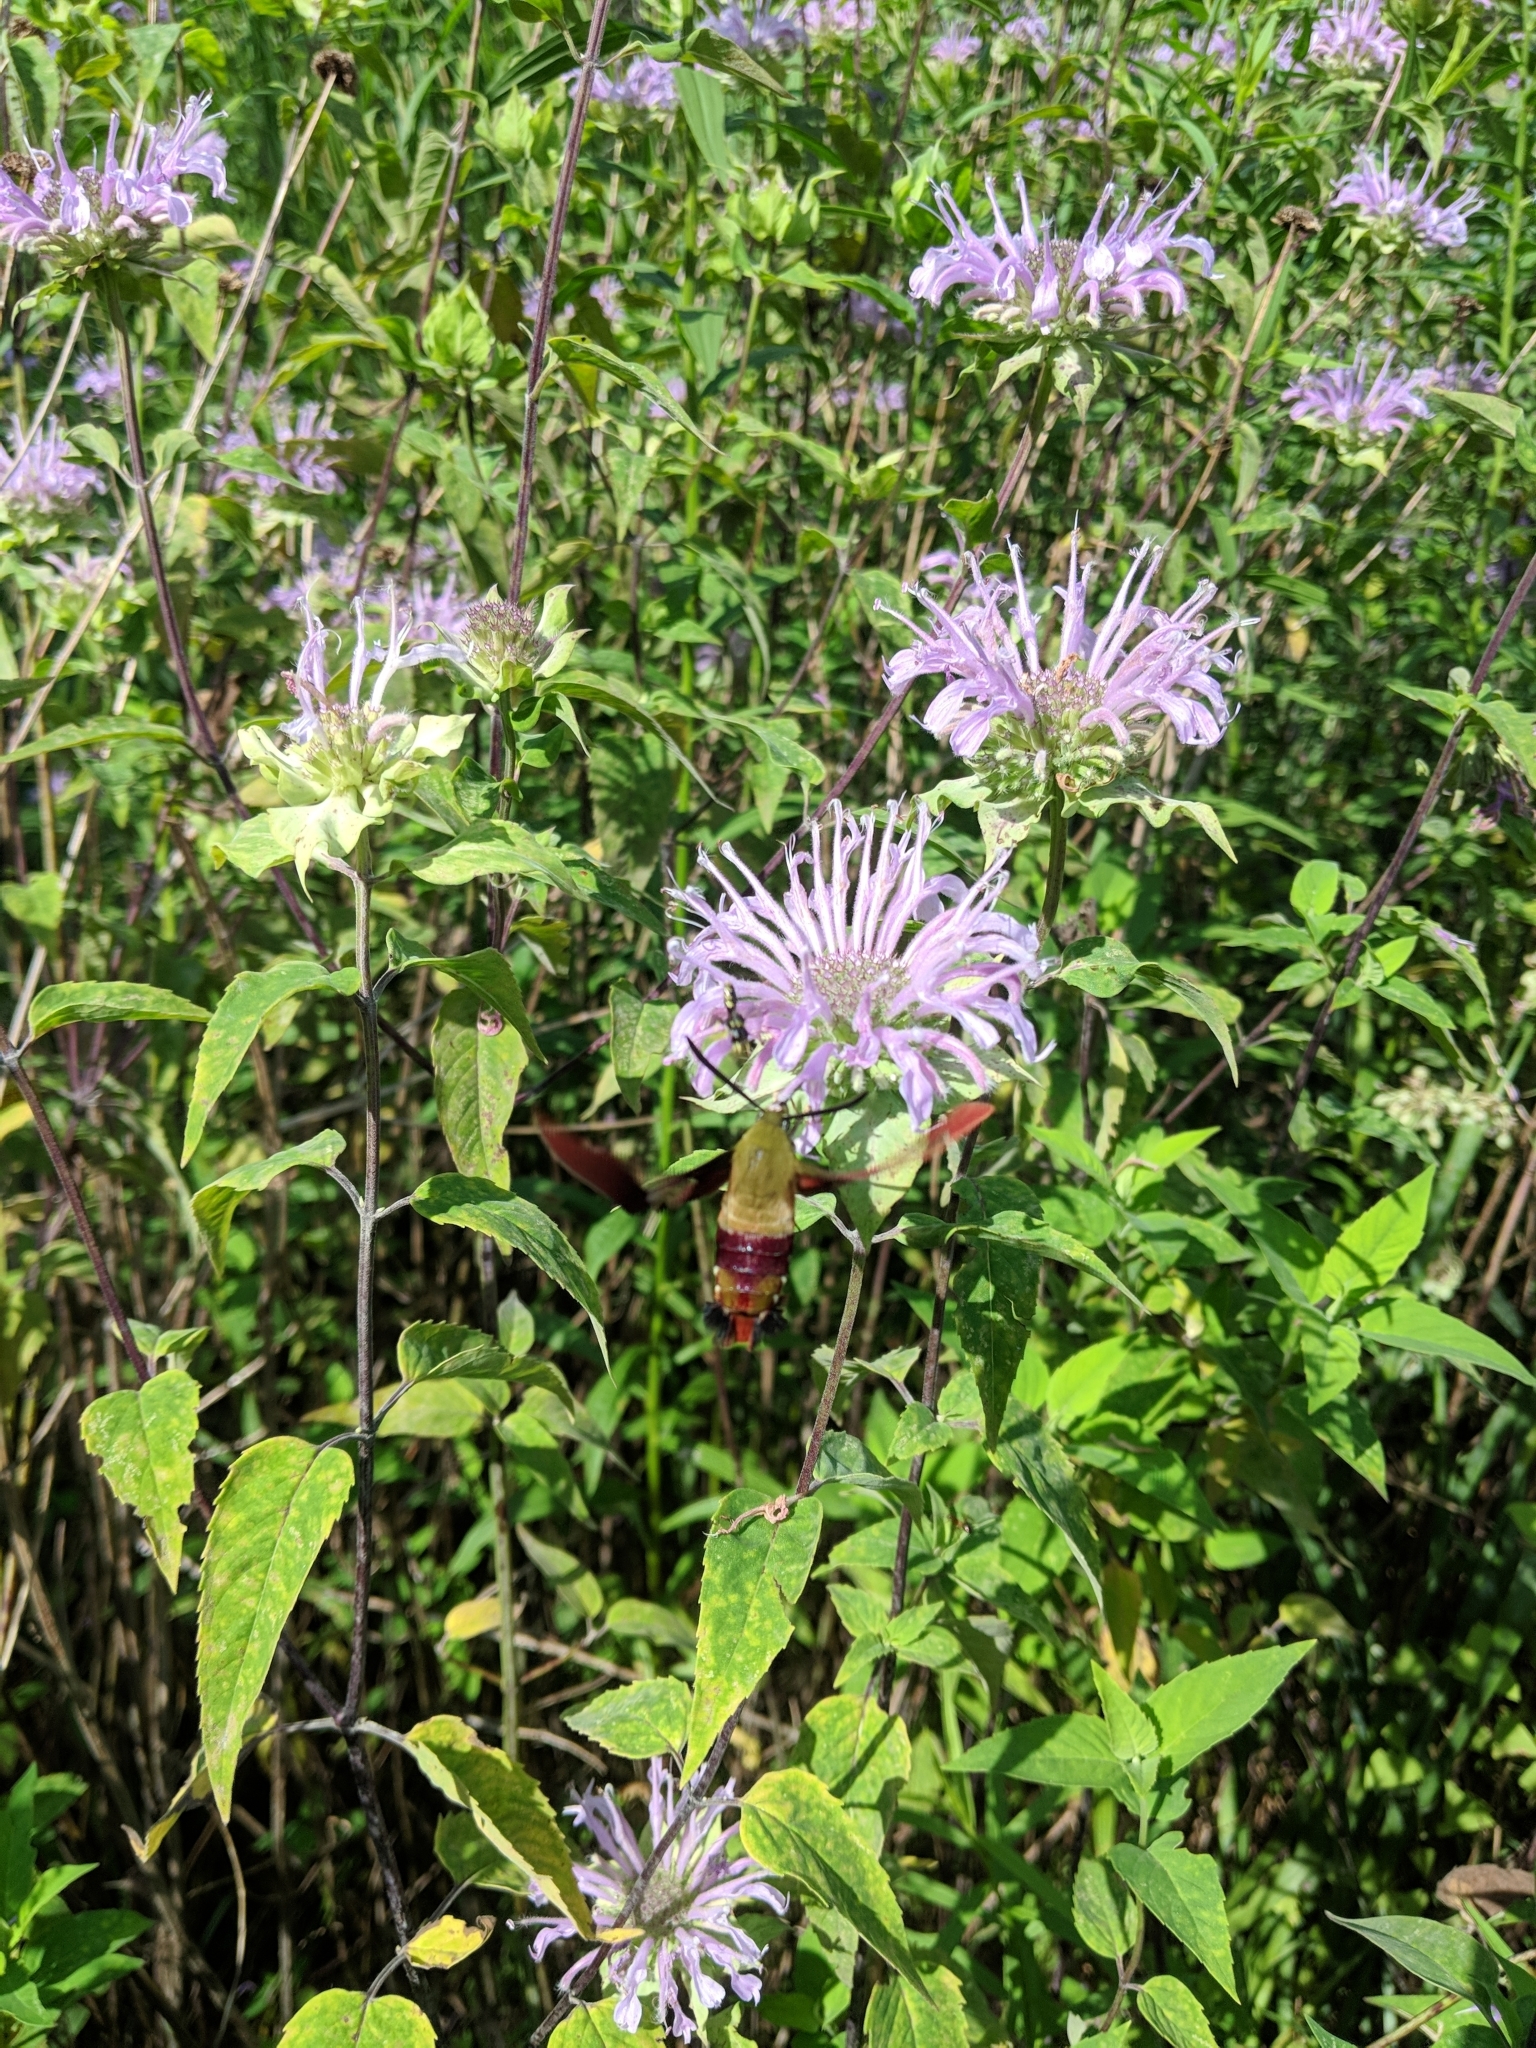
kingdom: Animalia
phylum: Arthropoda
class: Insecta
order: Lepidoptera
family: Sphingidae
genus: Hemaris
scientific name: Hemaris thysbe
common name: Common clear-wing
